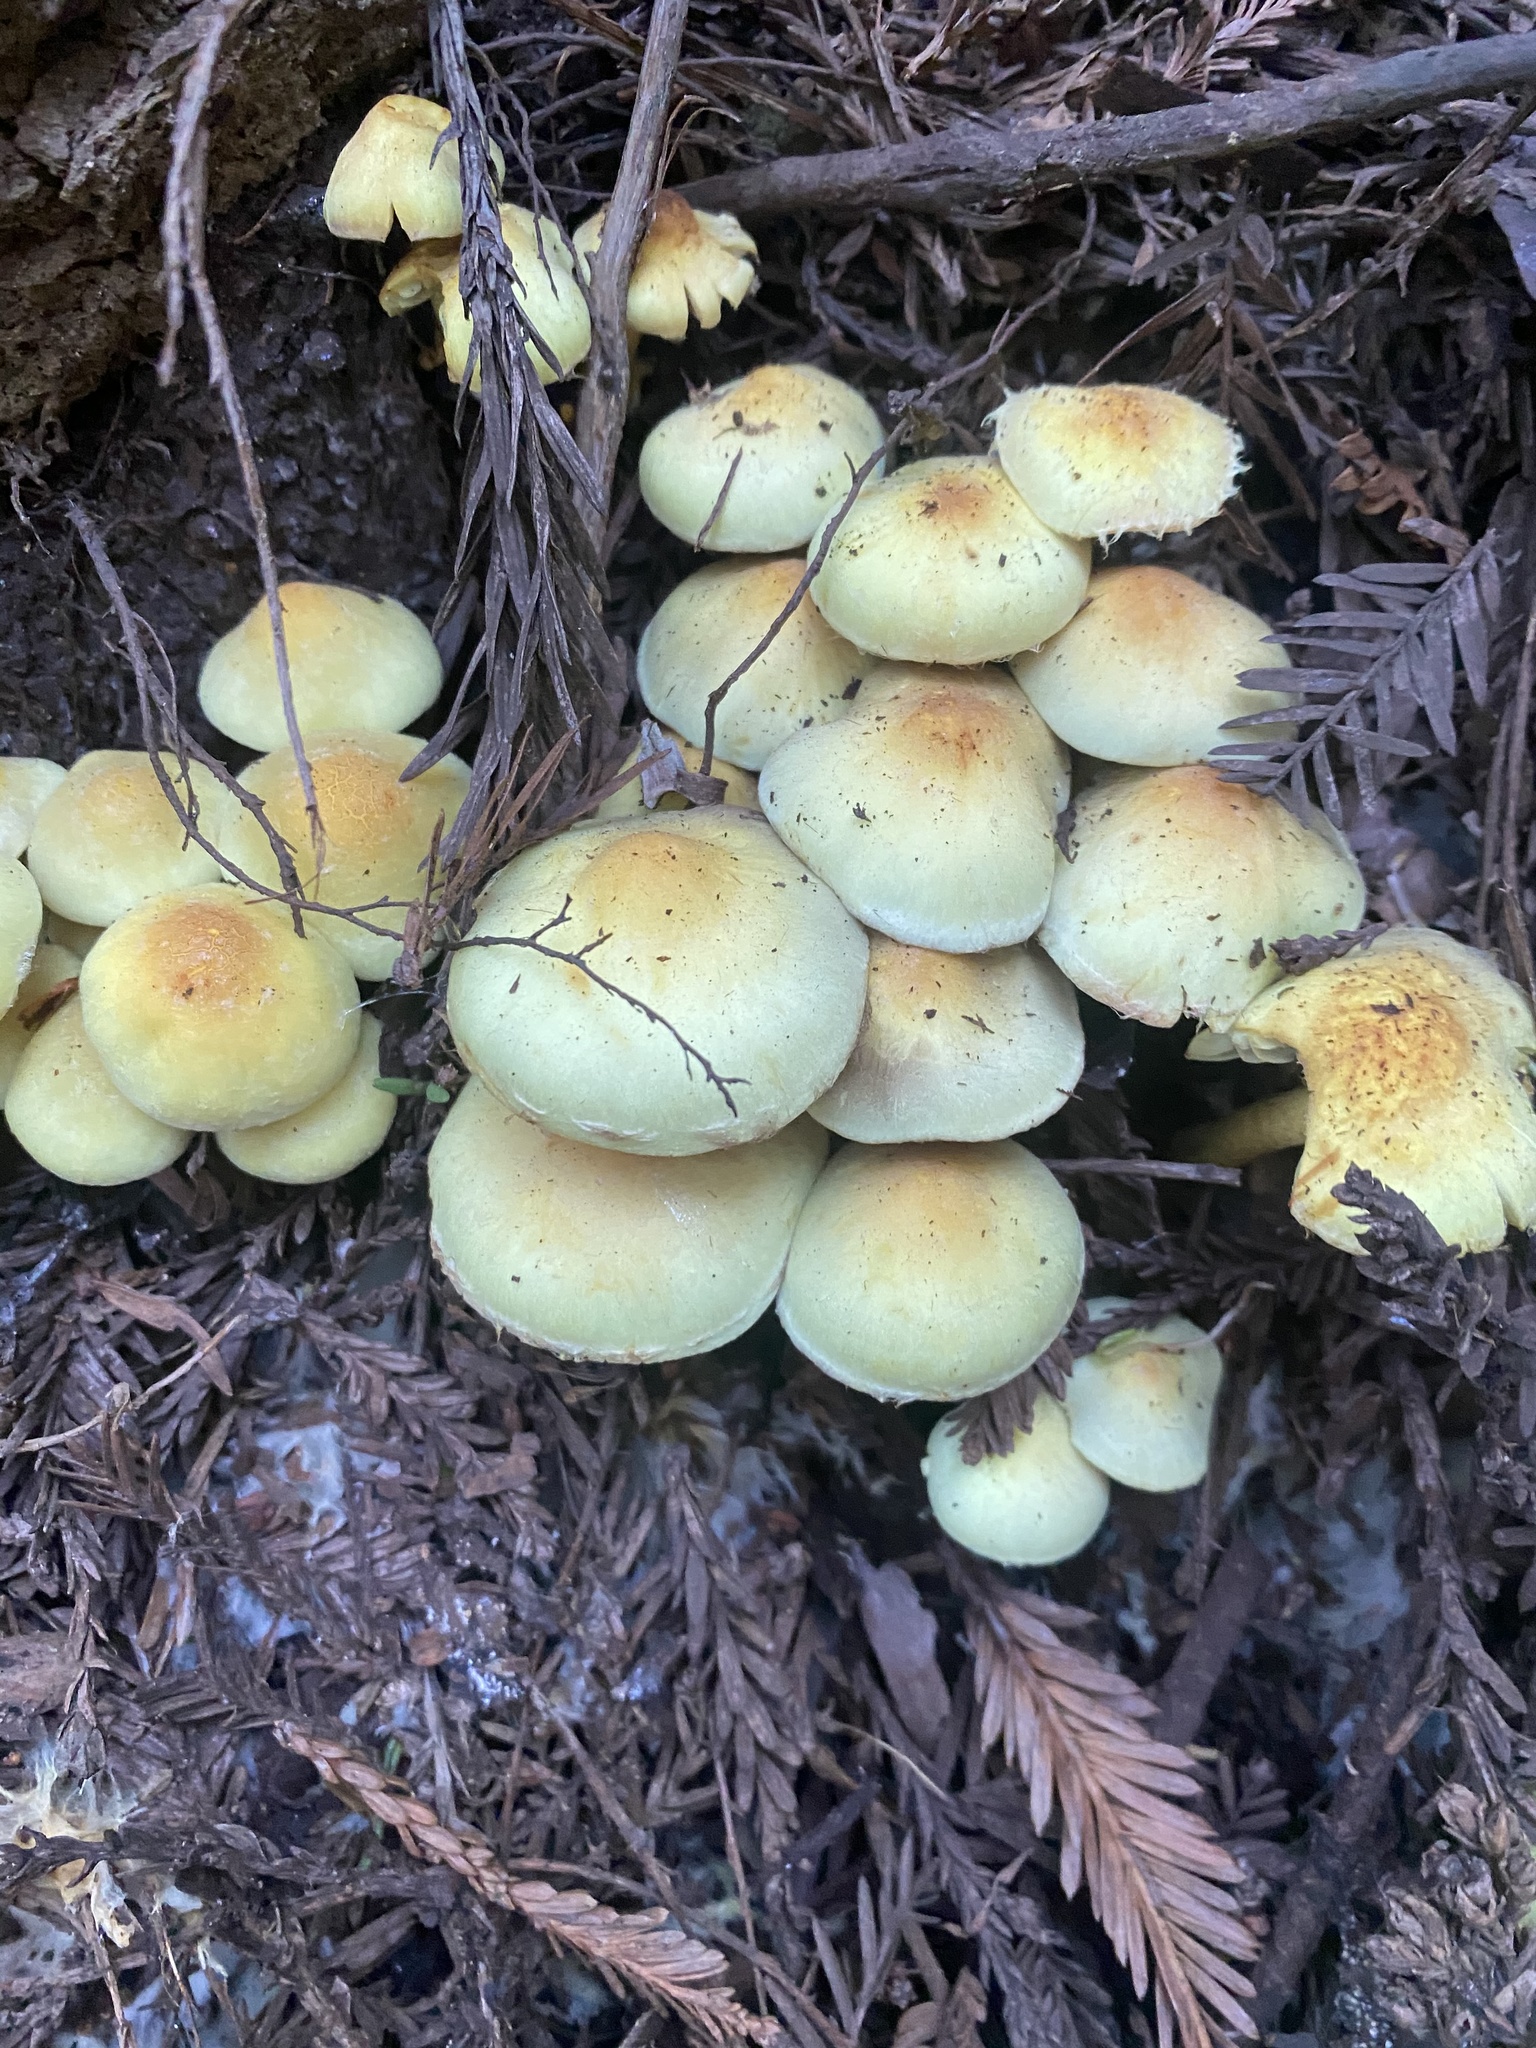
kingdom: Fungi
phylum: Basidiomycota
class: Agaricomycetes
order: Agaricales
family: Strophariaceae
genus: Hypholoma
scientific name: Hypholoma fasciculare
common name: Sulphur tuft
